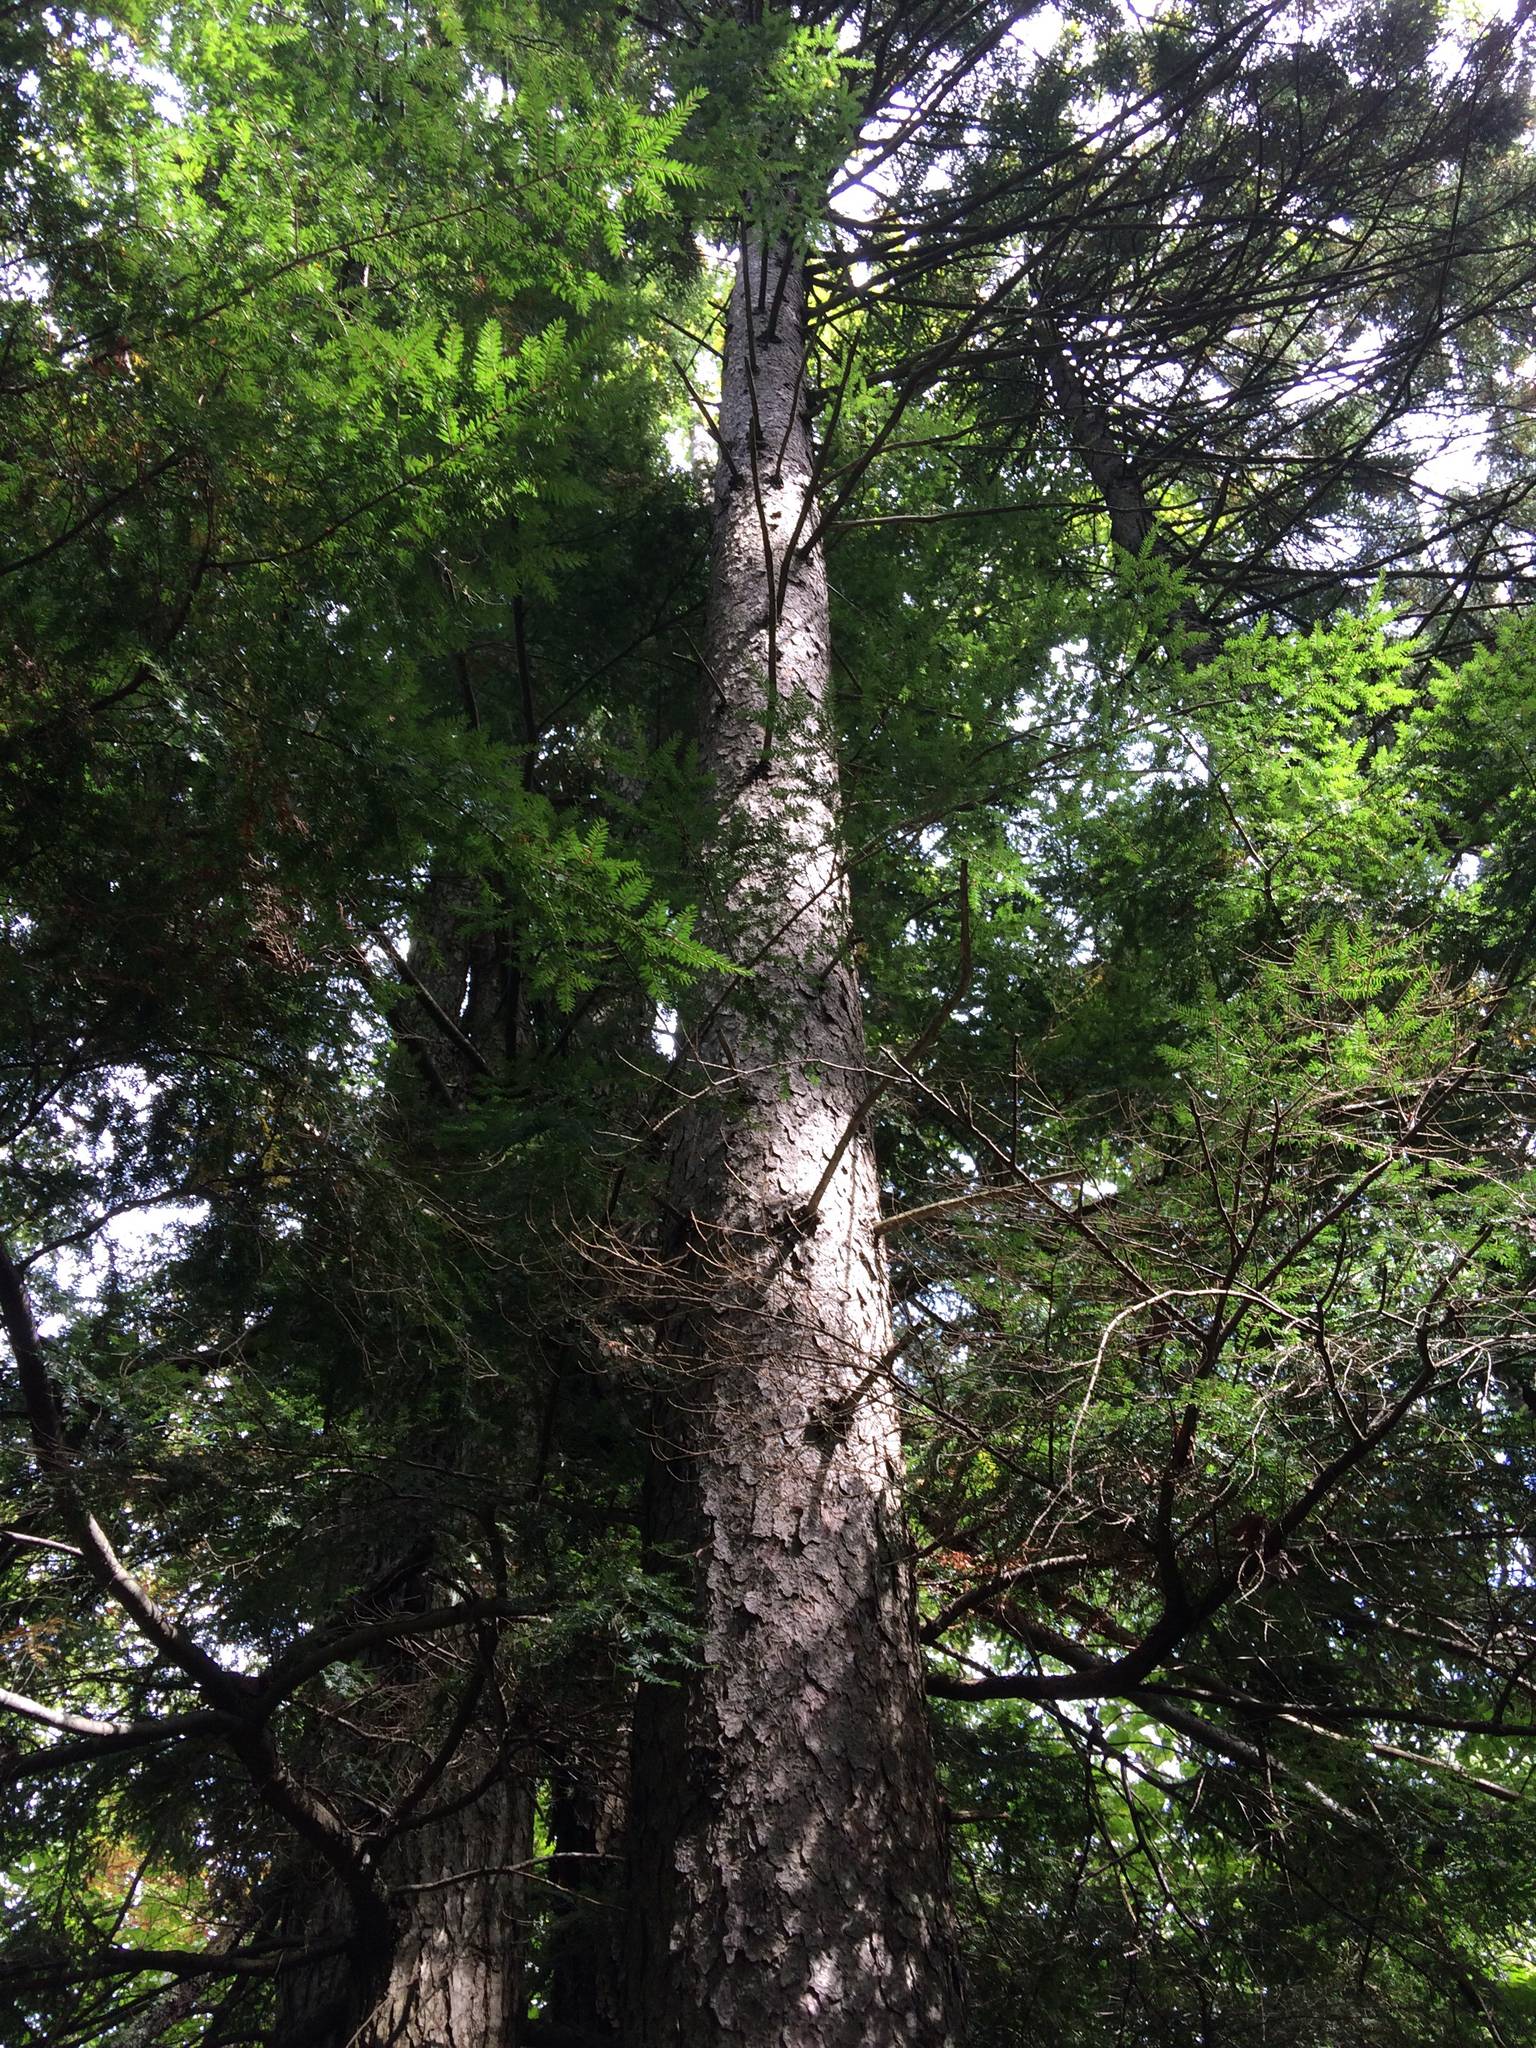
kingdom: Plantae
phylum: Tracheophyta
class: Pinopsida
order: Pinales
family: Pinaceae
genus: Picea
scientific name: Picea rubens
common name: Red spruce
